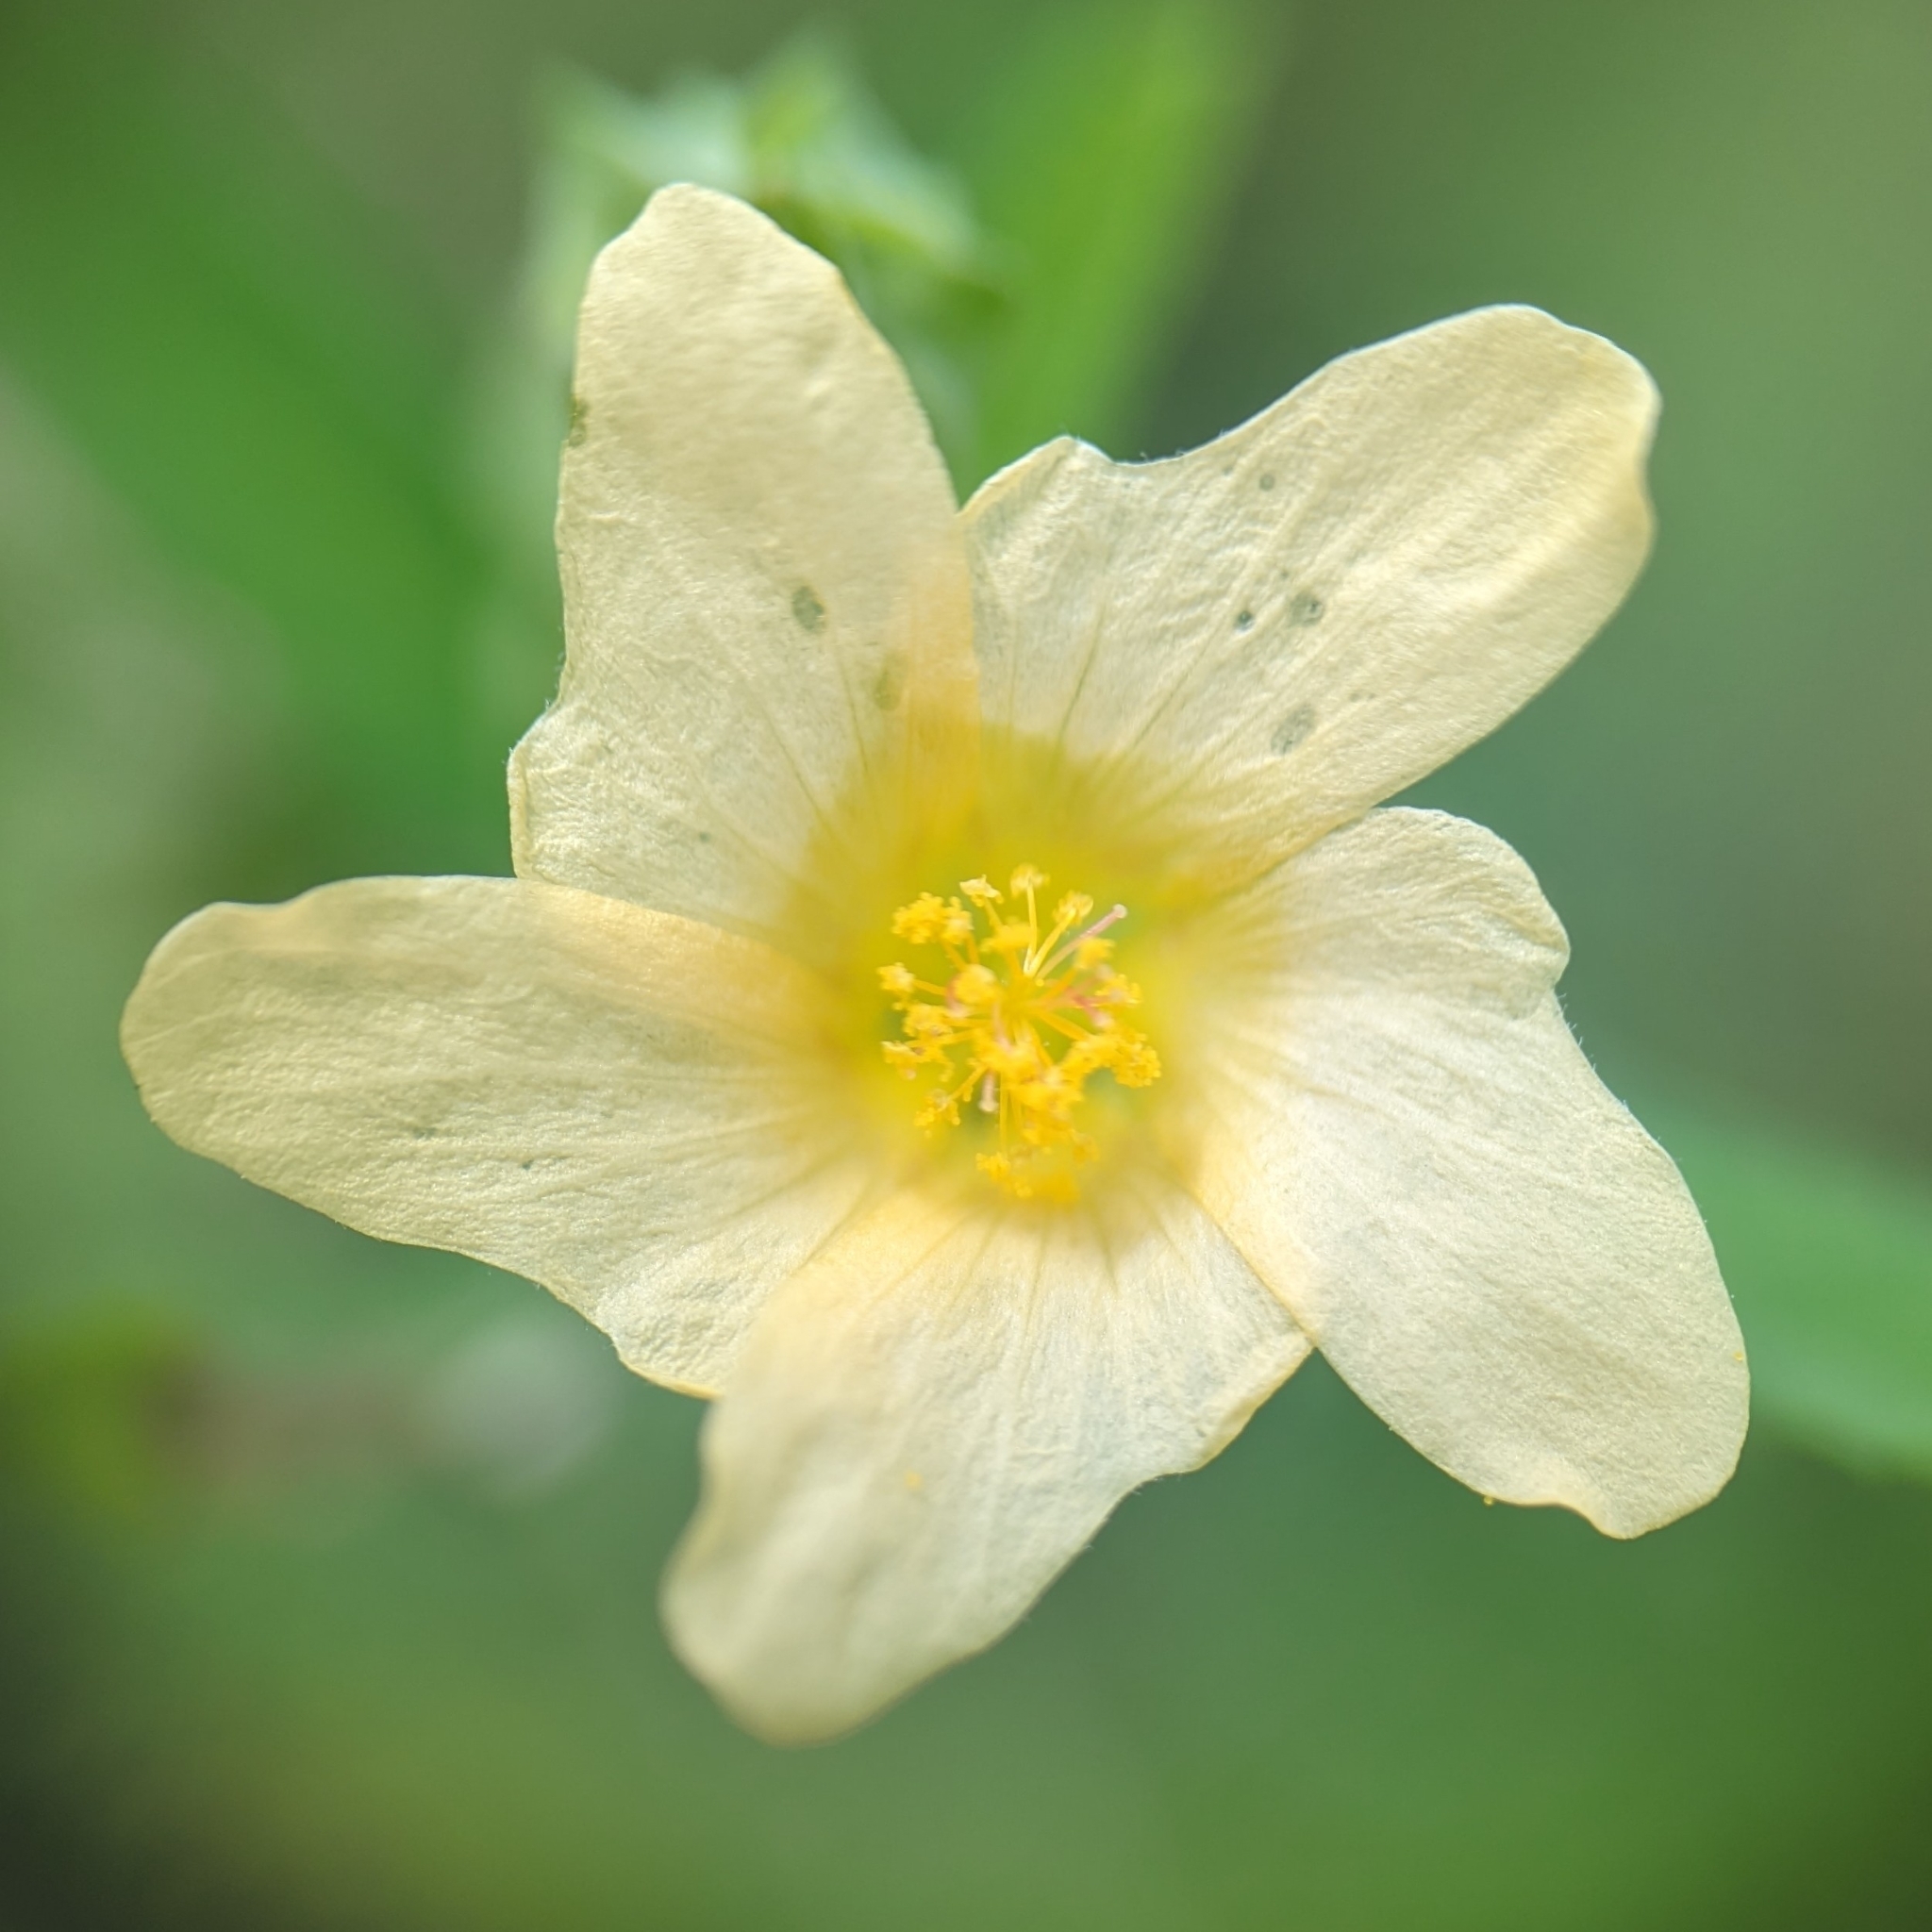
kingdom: Plantae
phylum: Tracheophyta
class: Magnoliopsida
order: Malvales
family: Malvaceae
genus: Sida
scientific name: Sida rhombifolia
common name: Queensland-hemp
